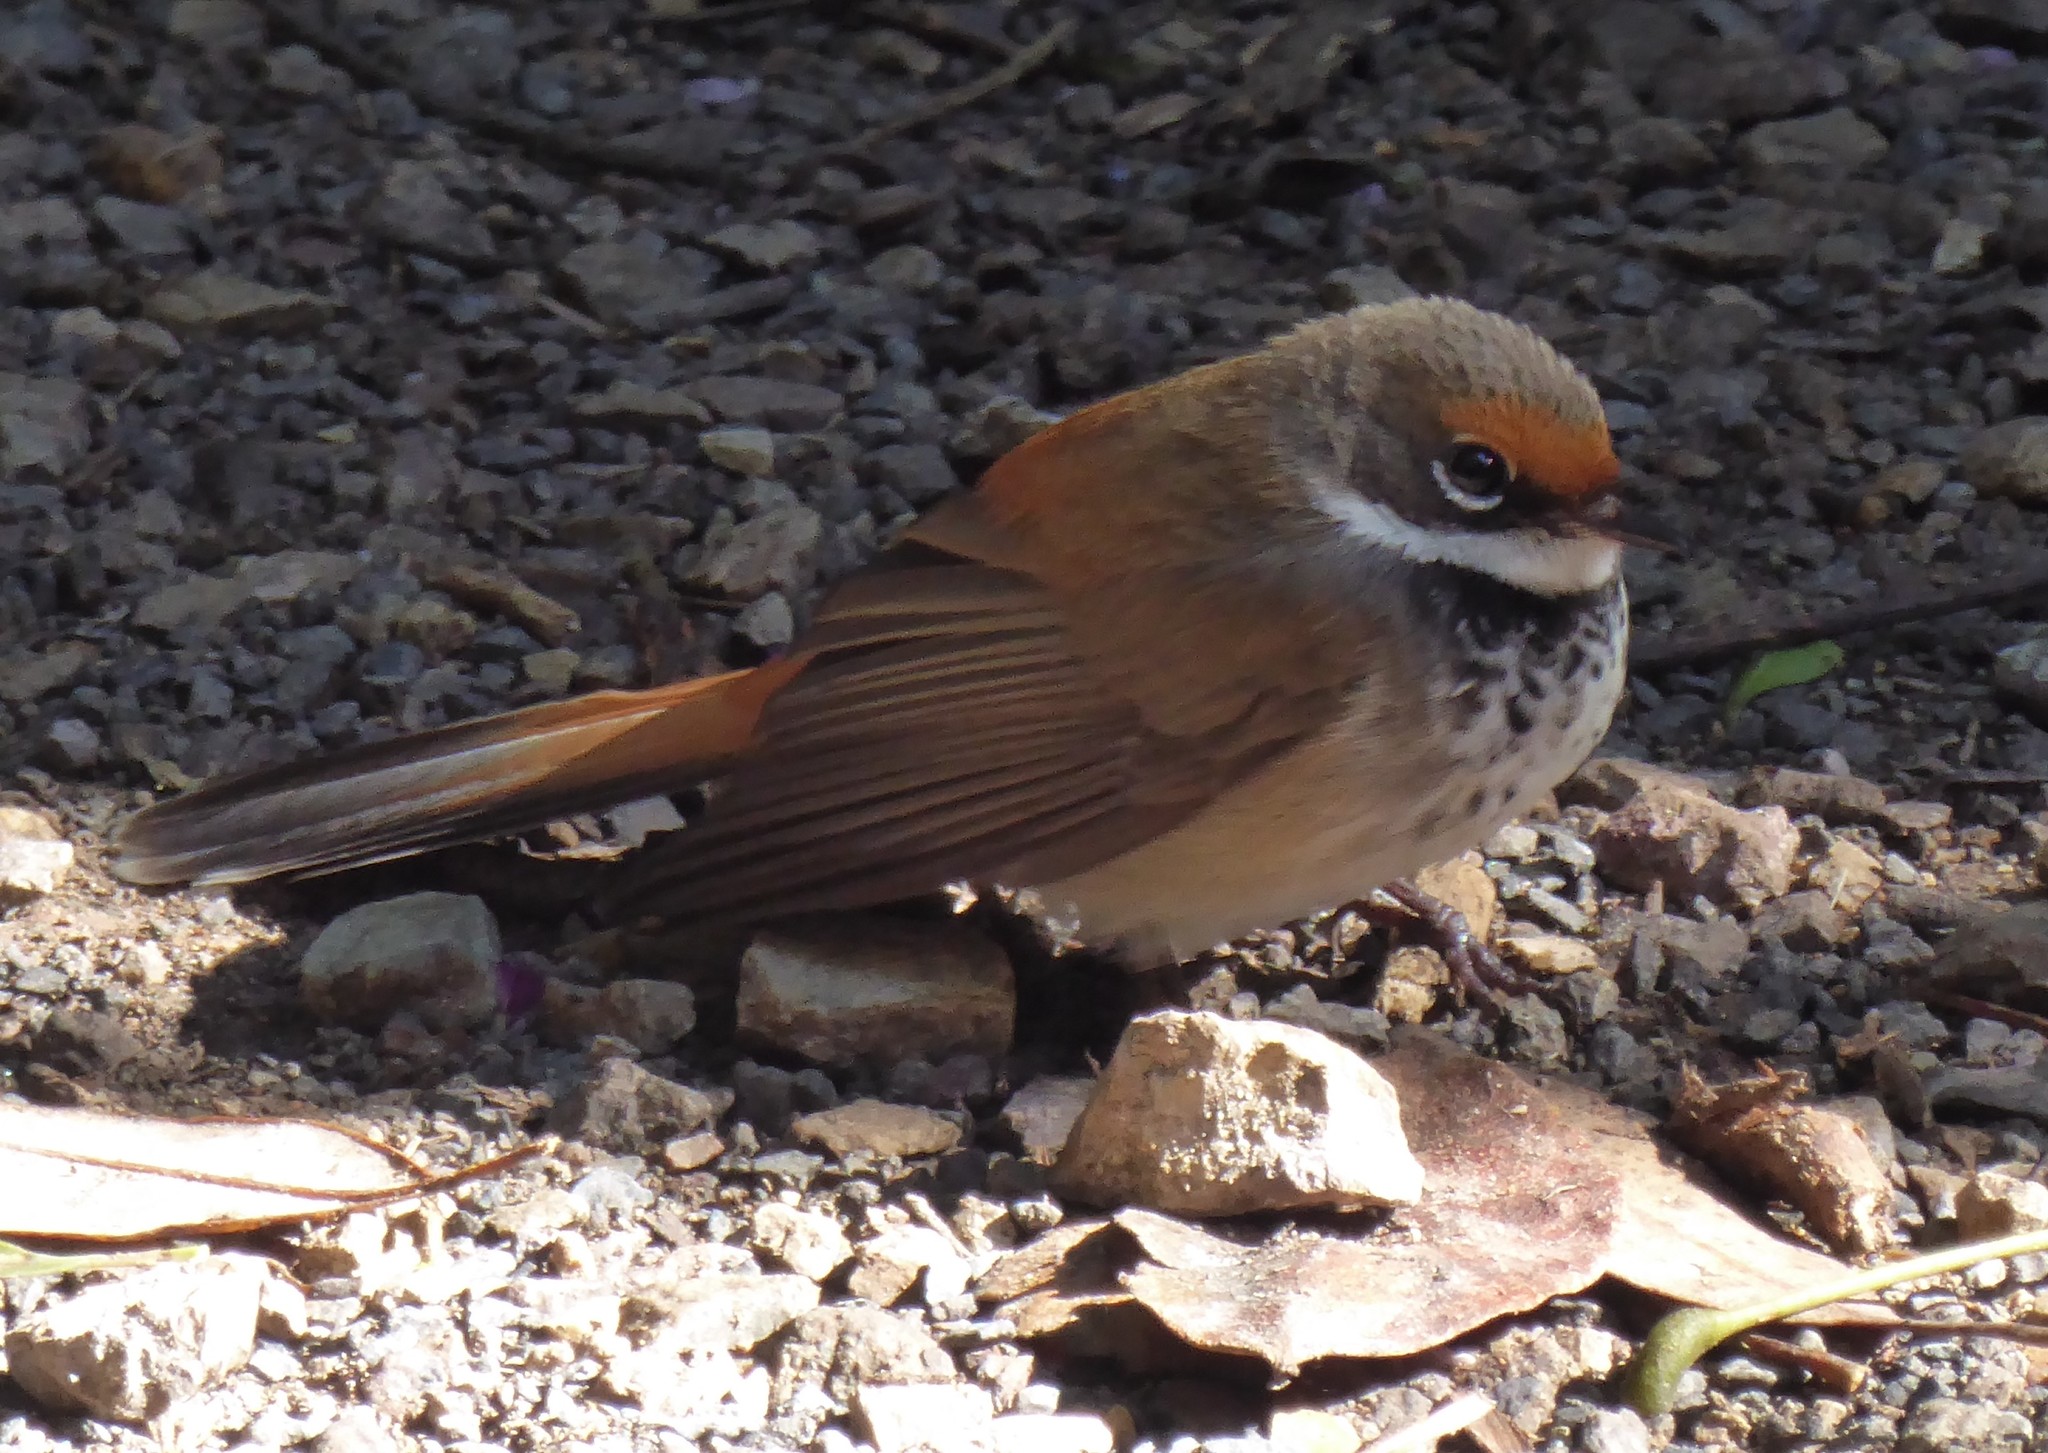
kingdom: Animalia
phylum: Chordata
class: Aves
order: Passeriformes
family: Rhipiduridae
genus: Rhipidura
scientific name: Rhipidura rufifrons
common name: Rufous fantail
